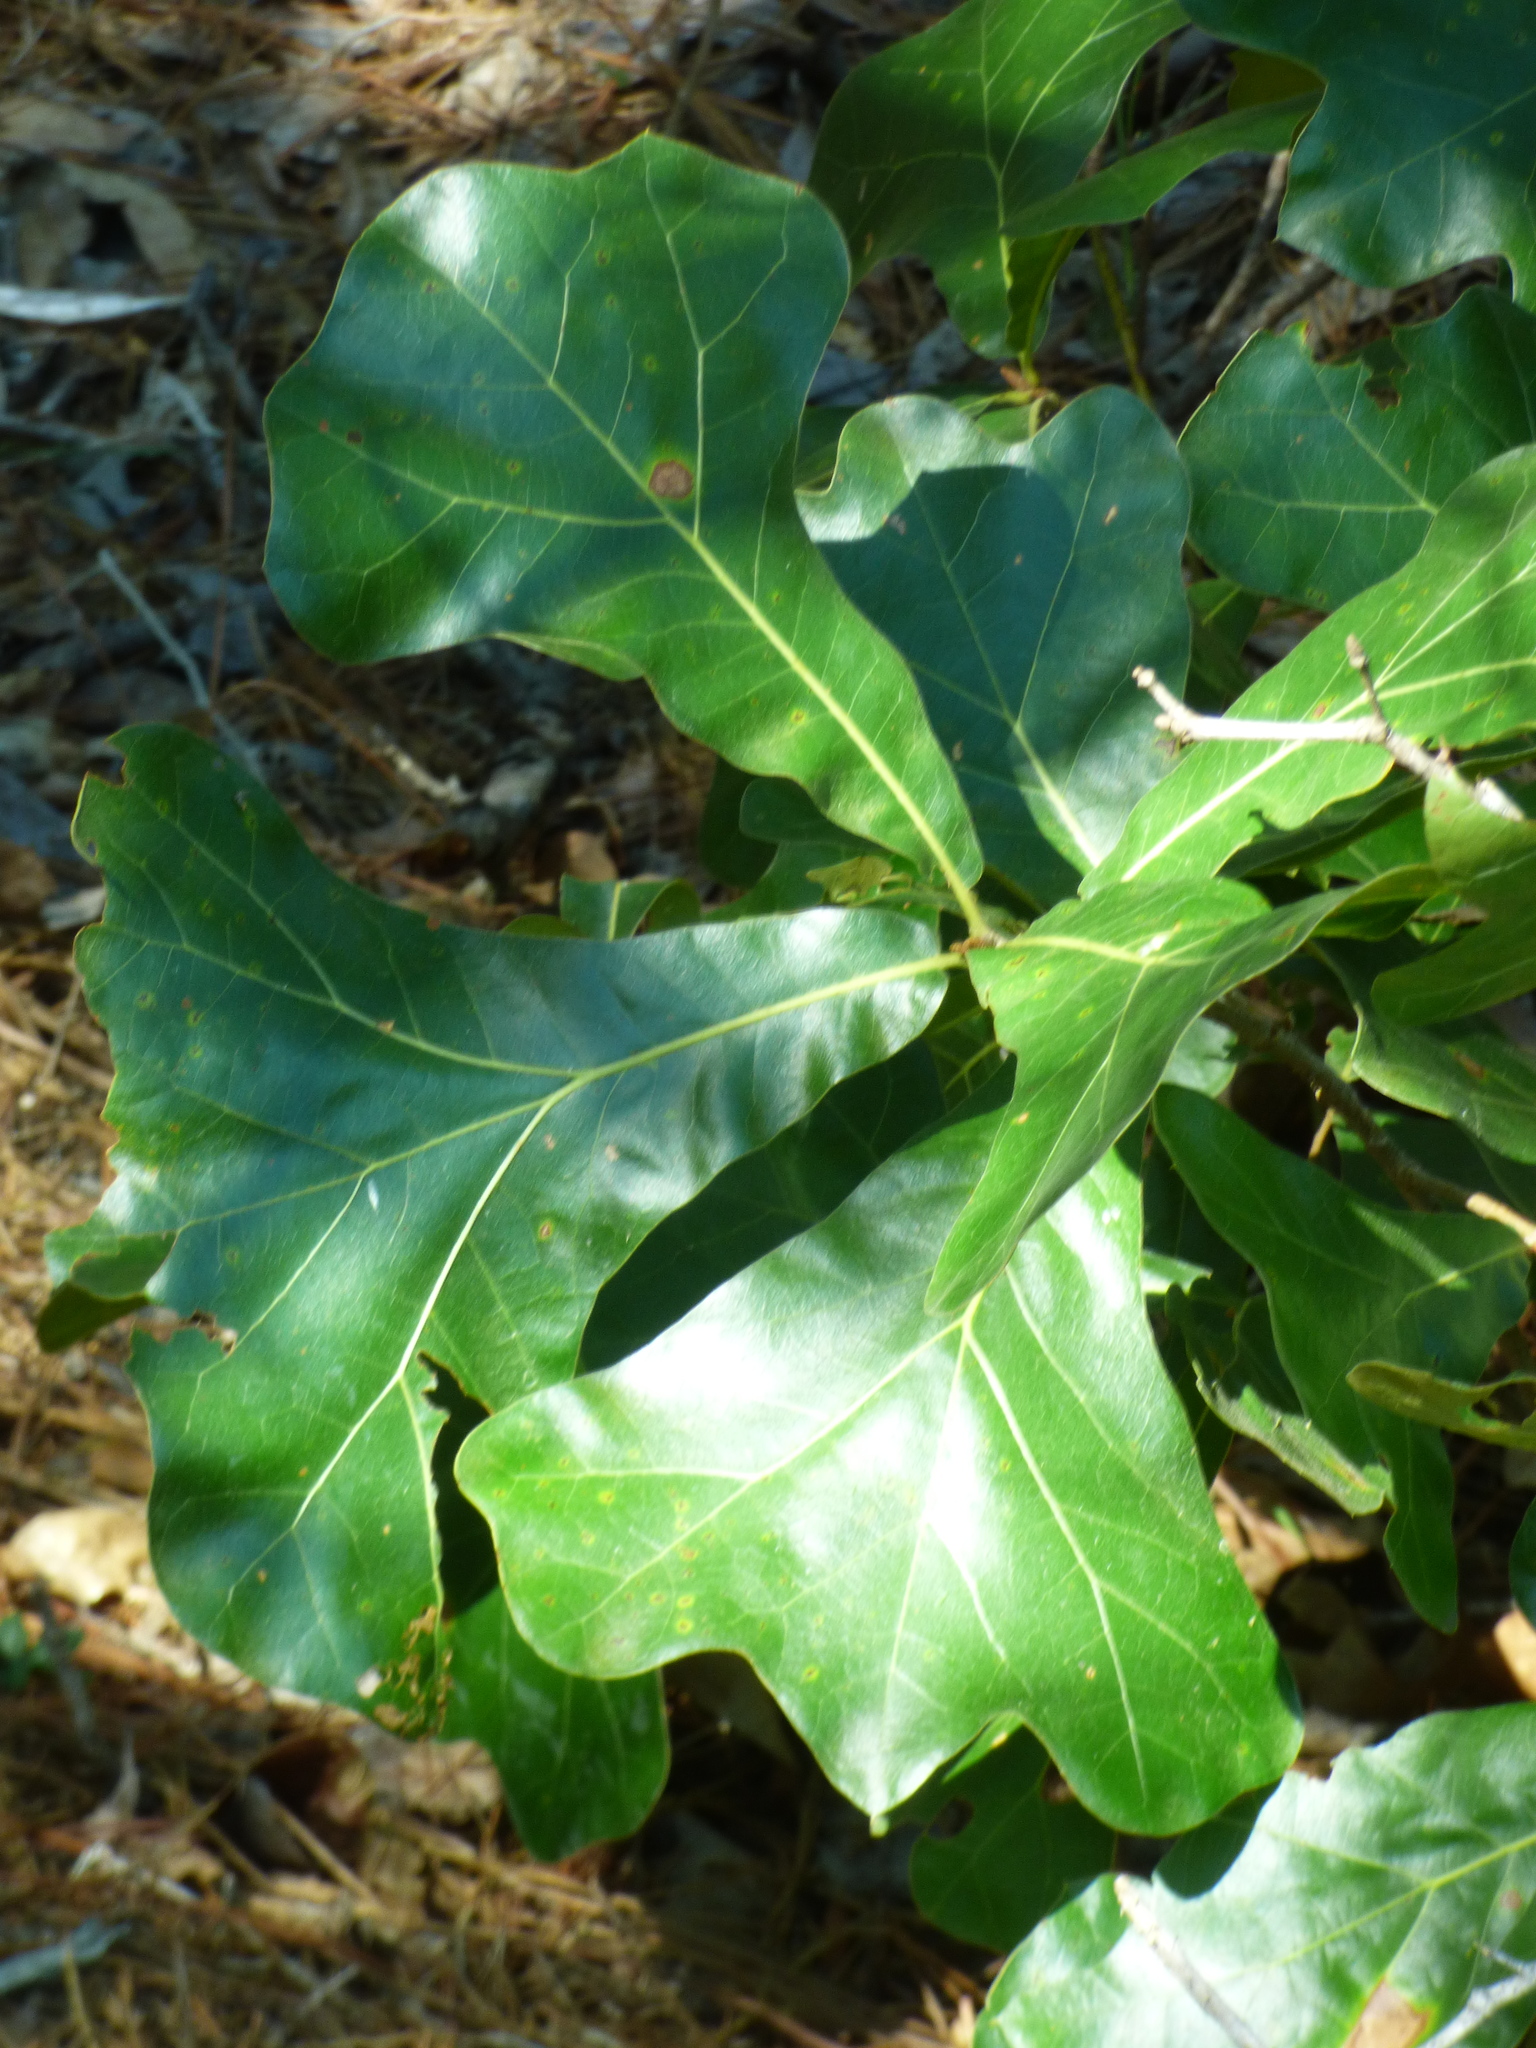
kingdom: Plantae
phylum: Tracheophyta
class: Magnoliopsida
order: Fagales
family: Fagaceae
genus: Quercus
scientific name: Quercus marilandica
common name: Blackjack oak
